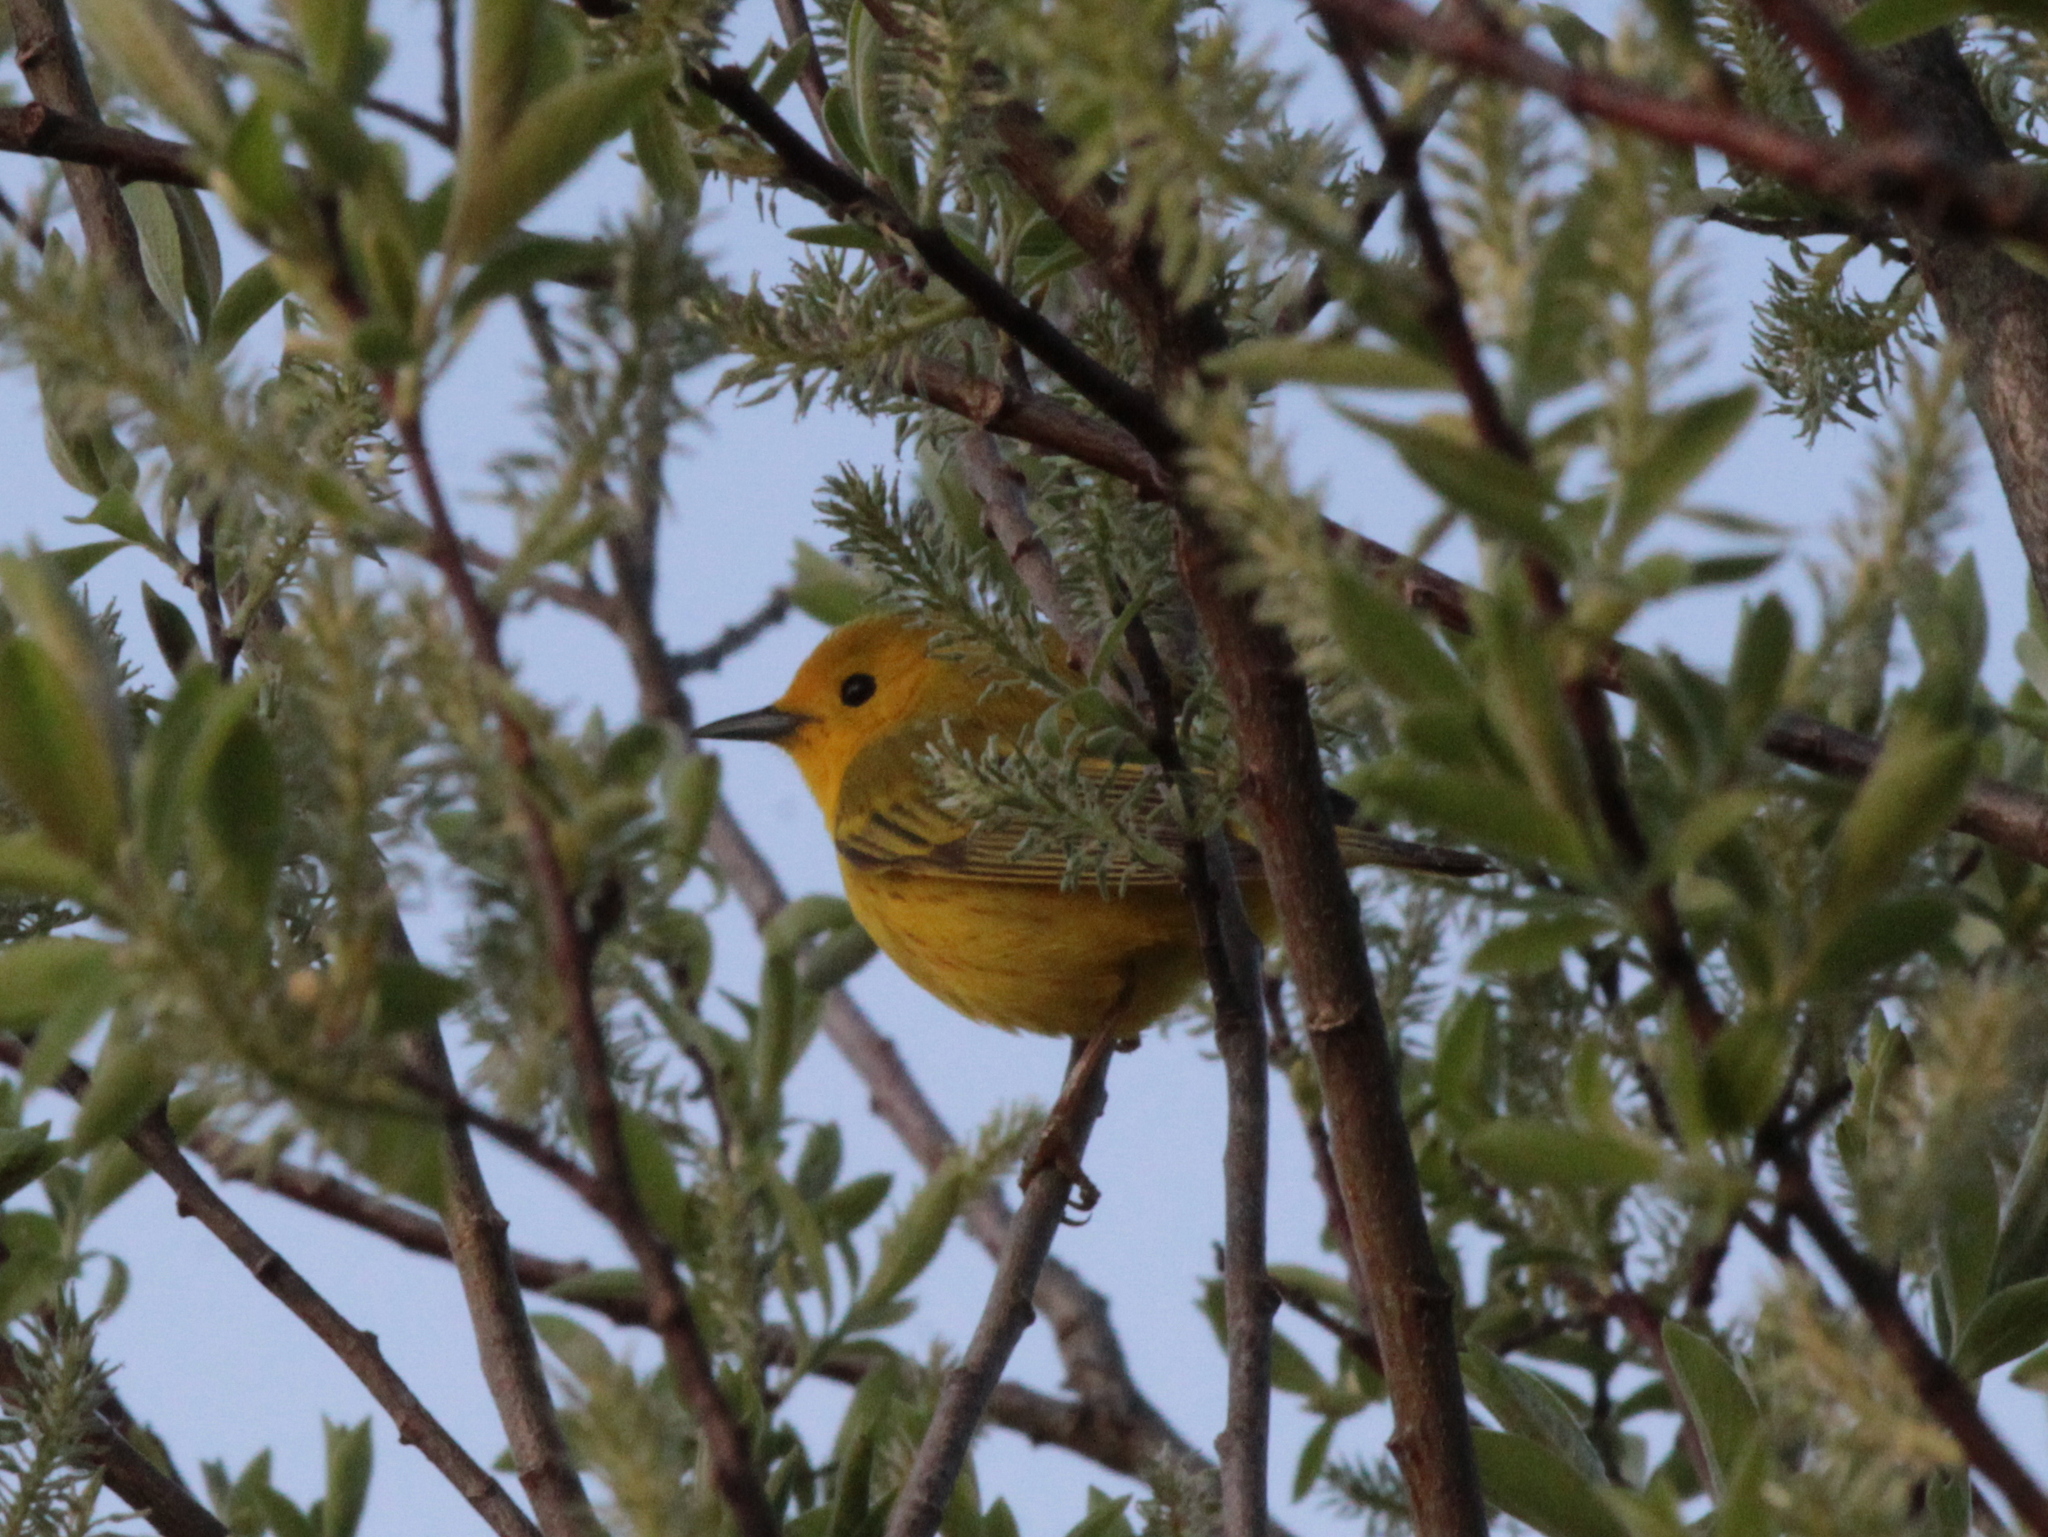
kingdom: Animalia
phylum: Chordata
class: Aves
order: Passeriformes
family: Parulidae
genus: Setophaga
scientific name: Setophaga petechia
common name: Yellow warbler
